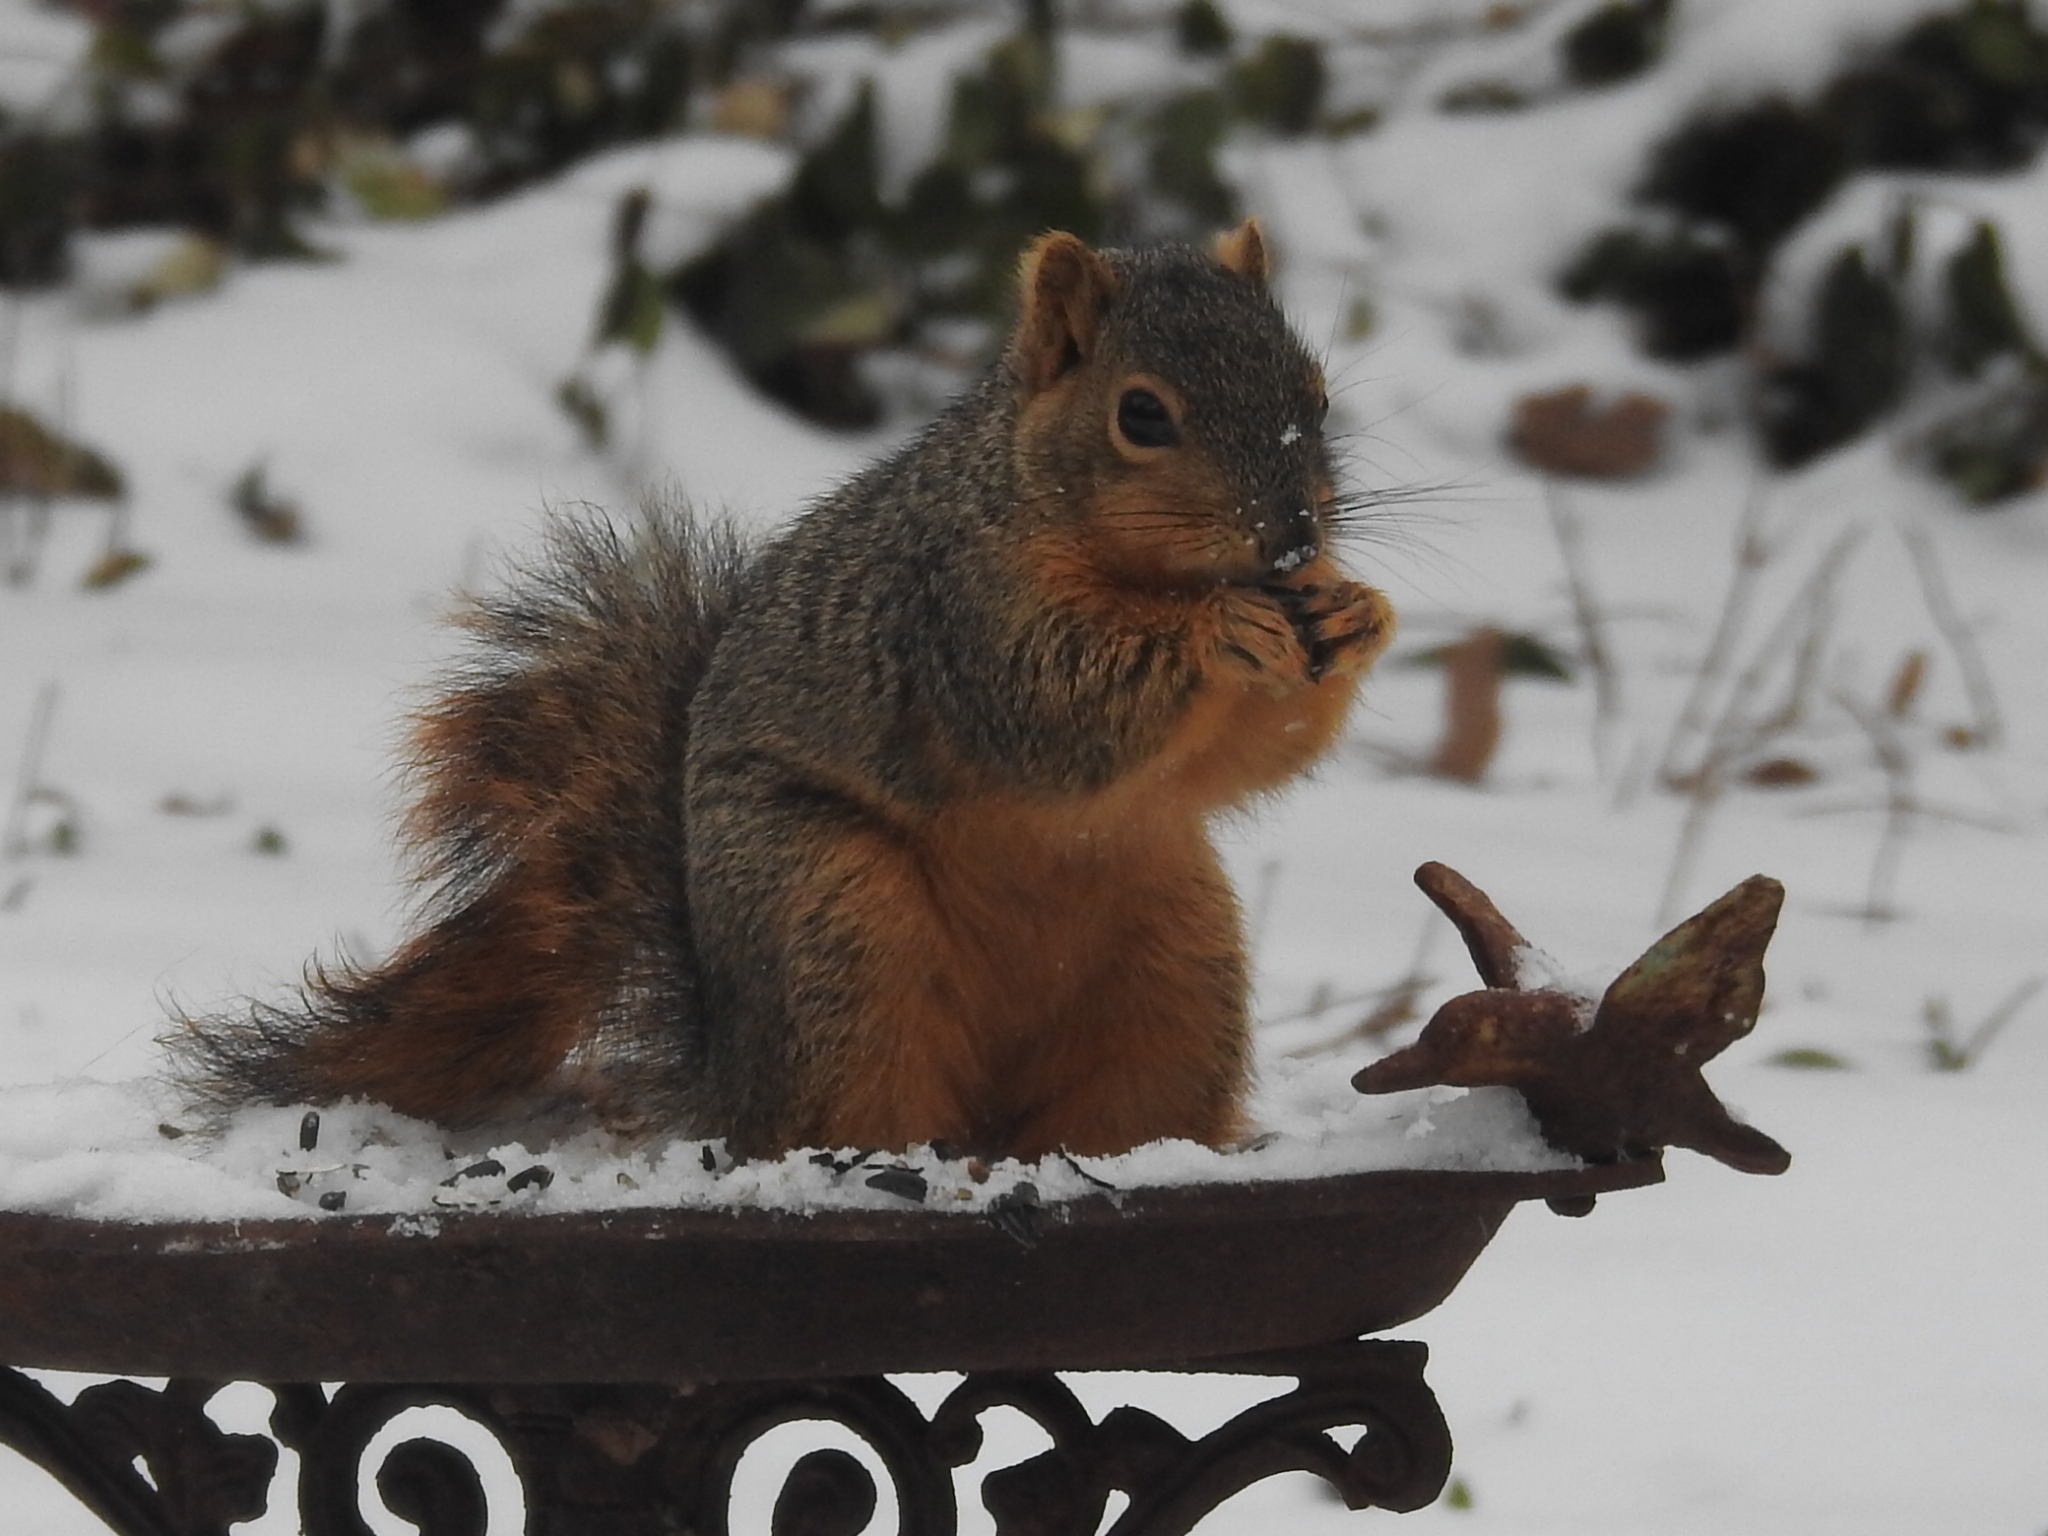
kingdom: Animalia
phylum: Chordata
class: Mammalia
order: Rodentia
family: Sciuridae
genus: Sciurus
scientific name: Sciurus niger
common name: Fox squirrel
